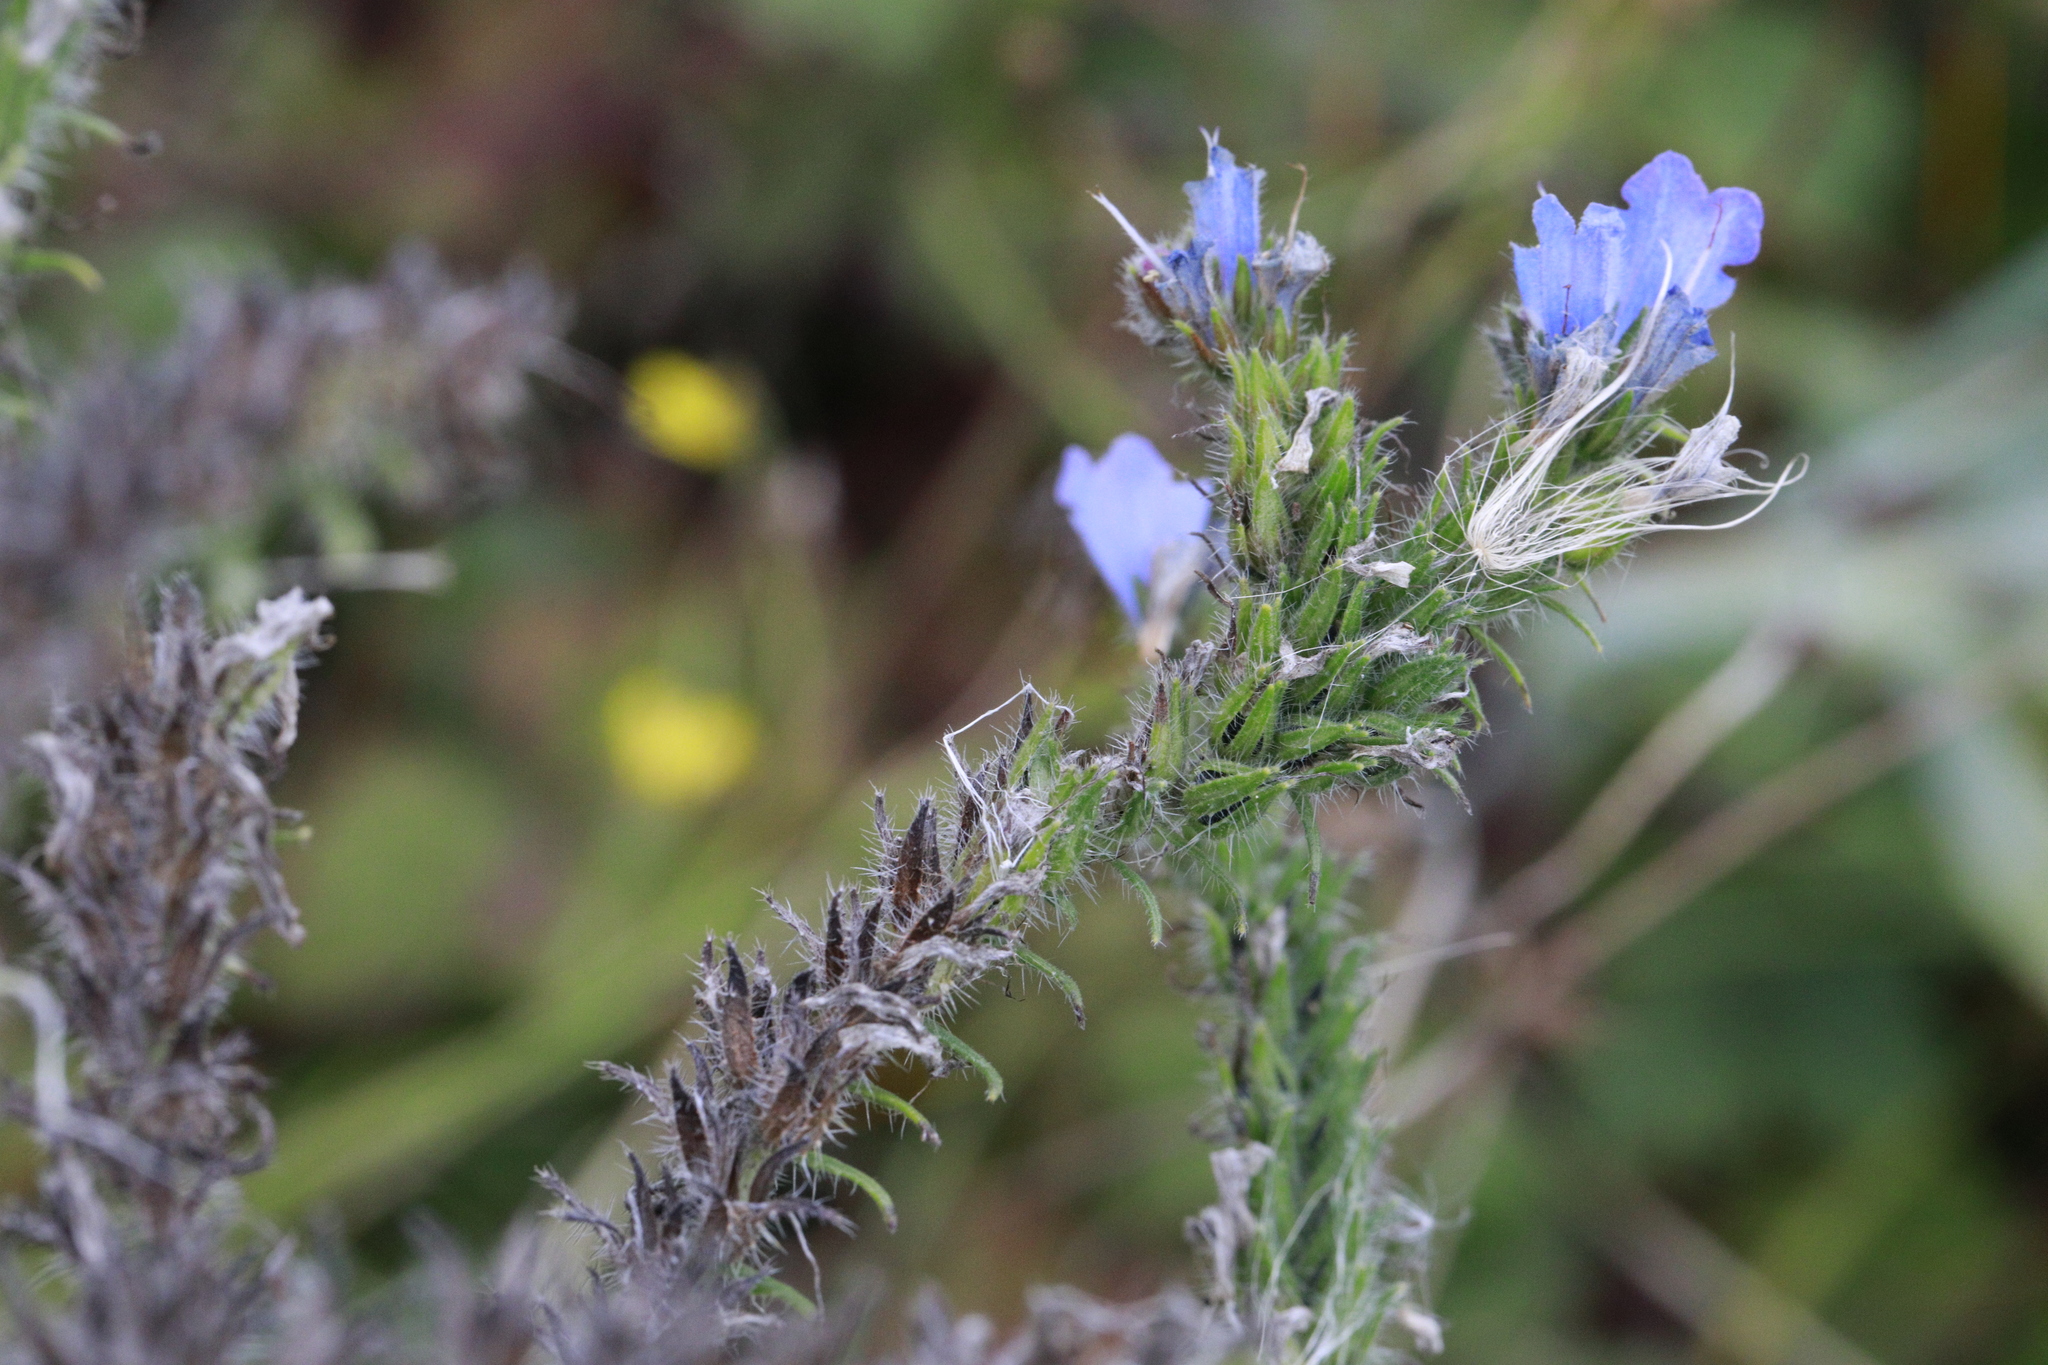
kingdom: Plantae
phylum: Tracheophyta
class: Magnoliopsida
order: Boraginales
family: Boraginaceae
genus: Echium
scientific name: Echium vulgare
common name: Common viper's bugloss
